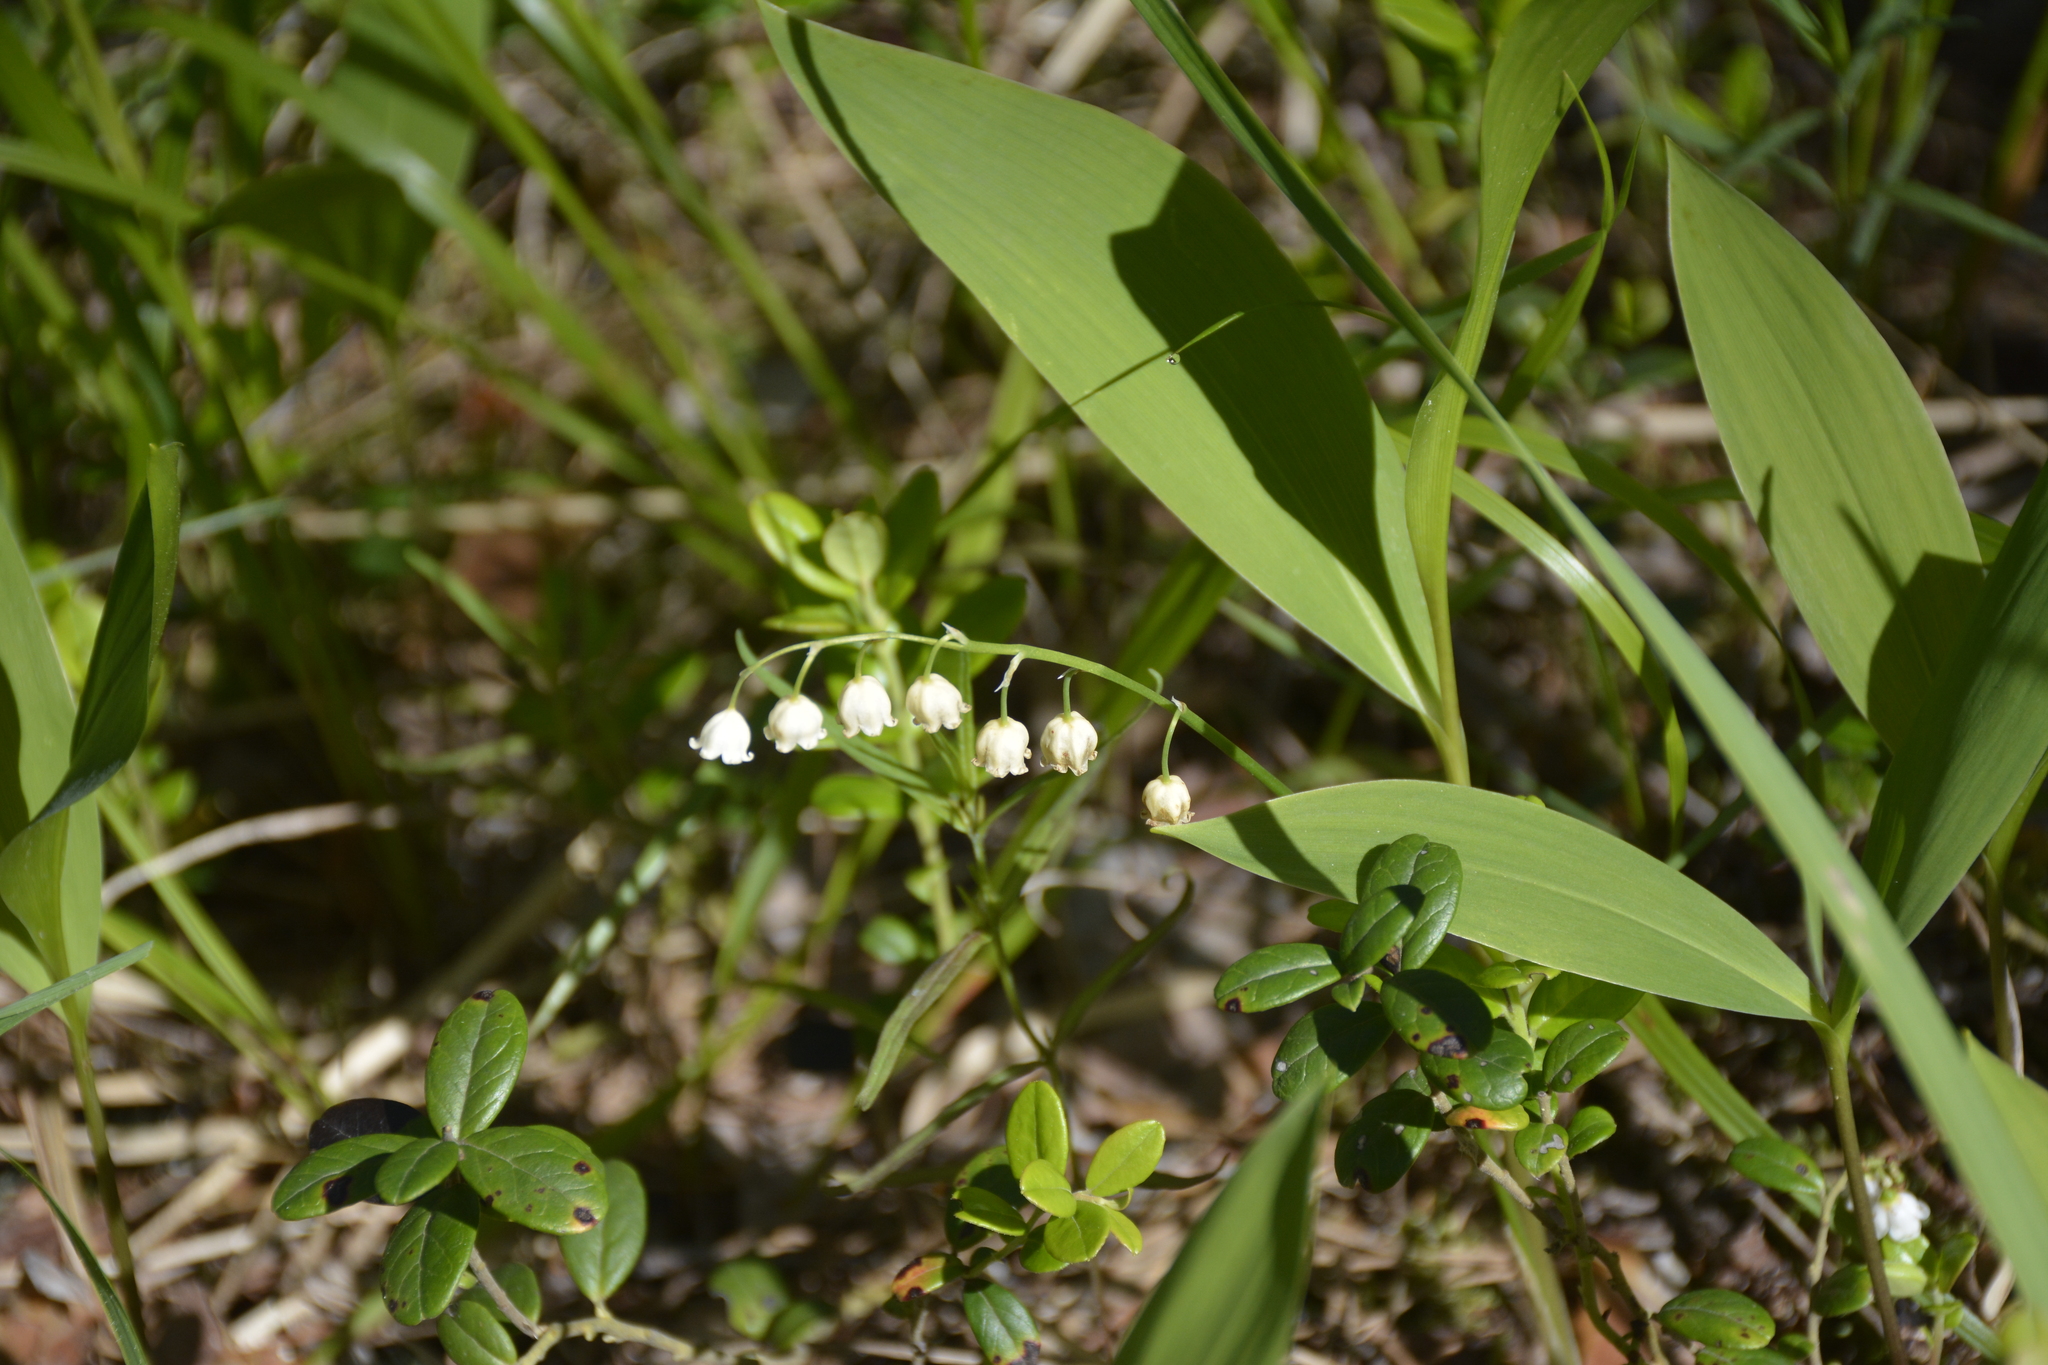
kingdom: Plantae
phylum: Tracheophyta
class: Liliopsida
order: Asparagales
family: Asparagaceae
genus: Convallaria
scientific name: Convallaria majalis
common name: Lily-of-the-valley
